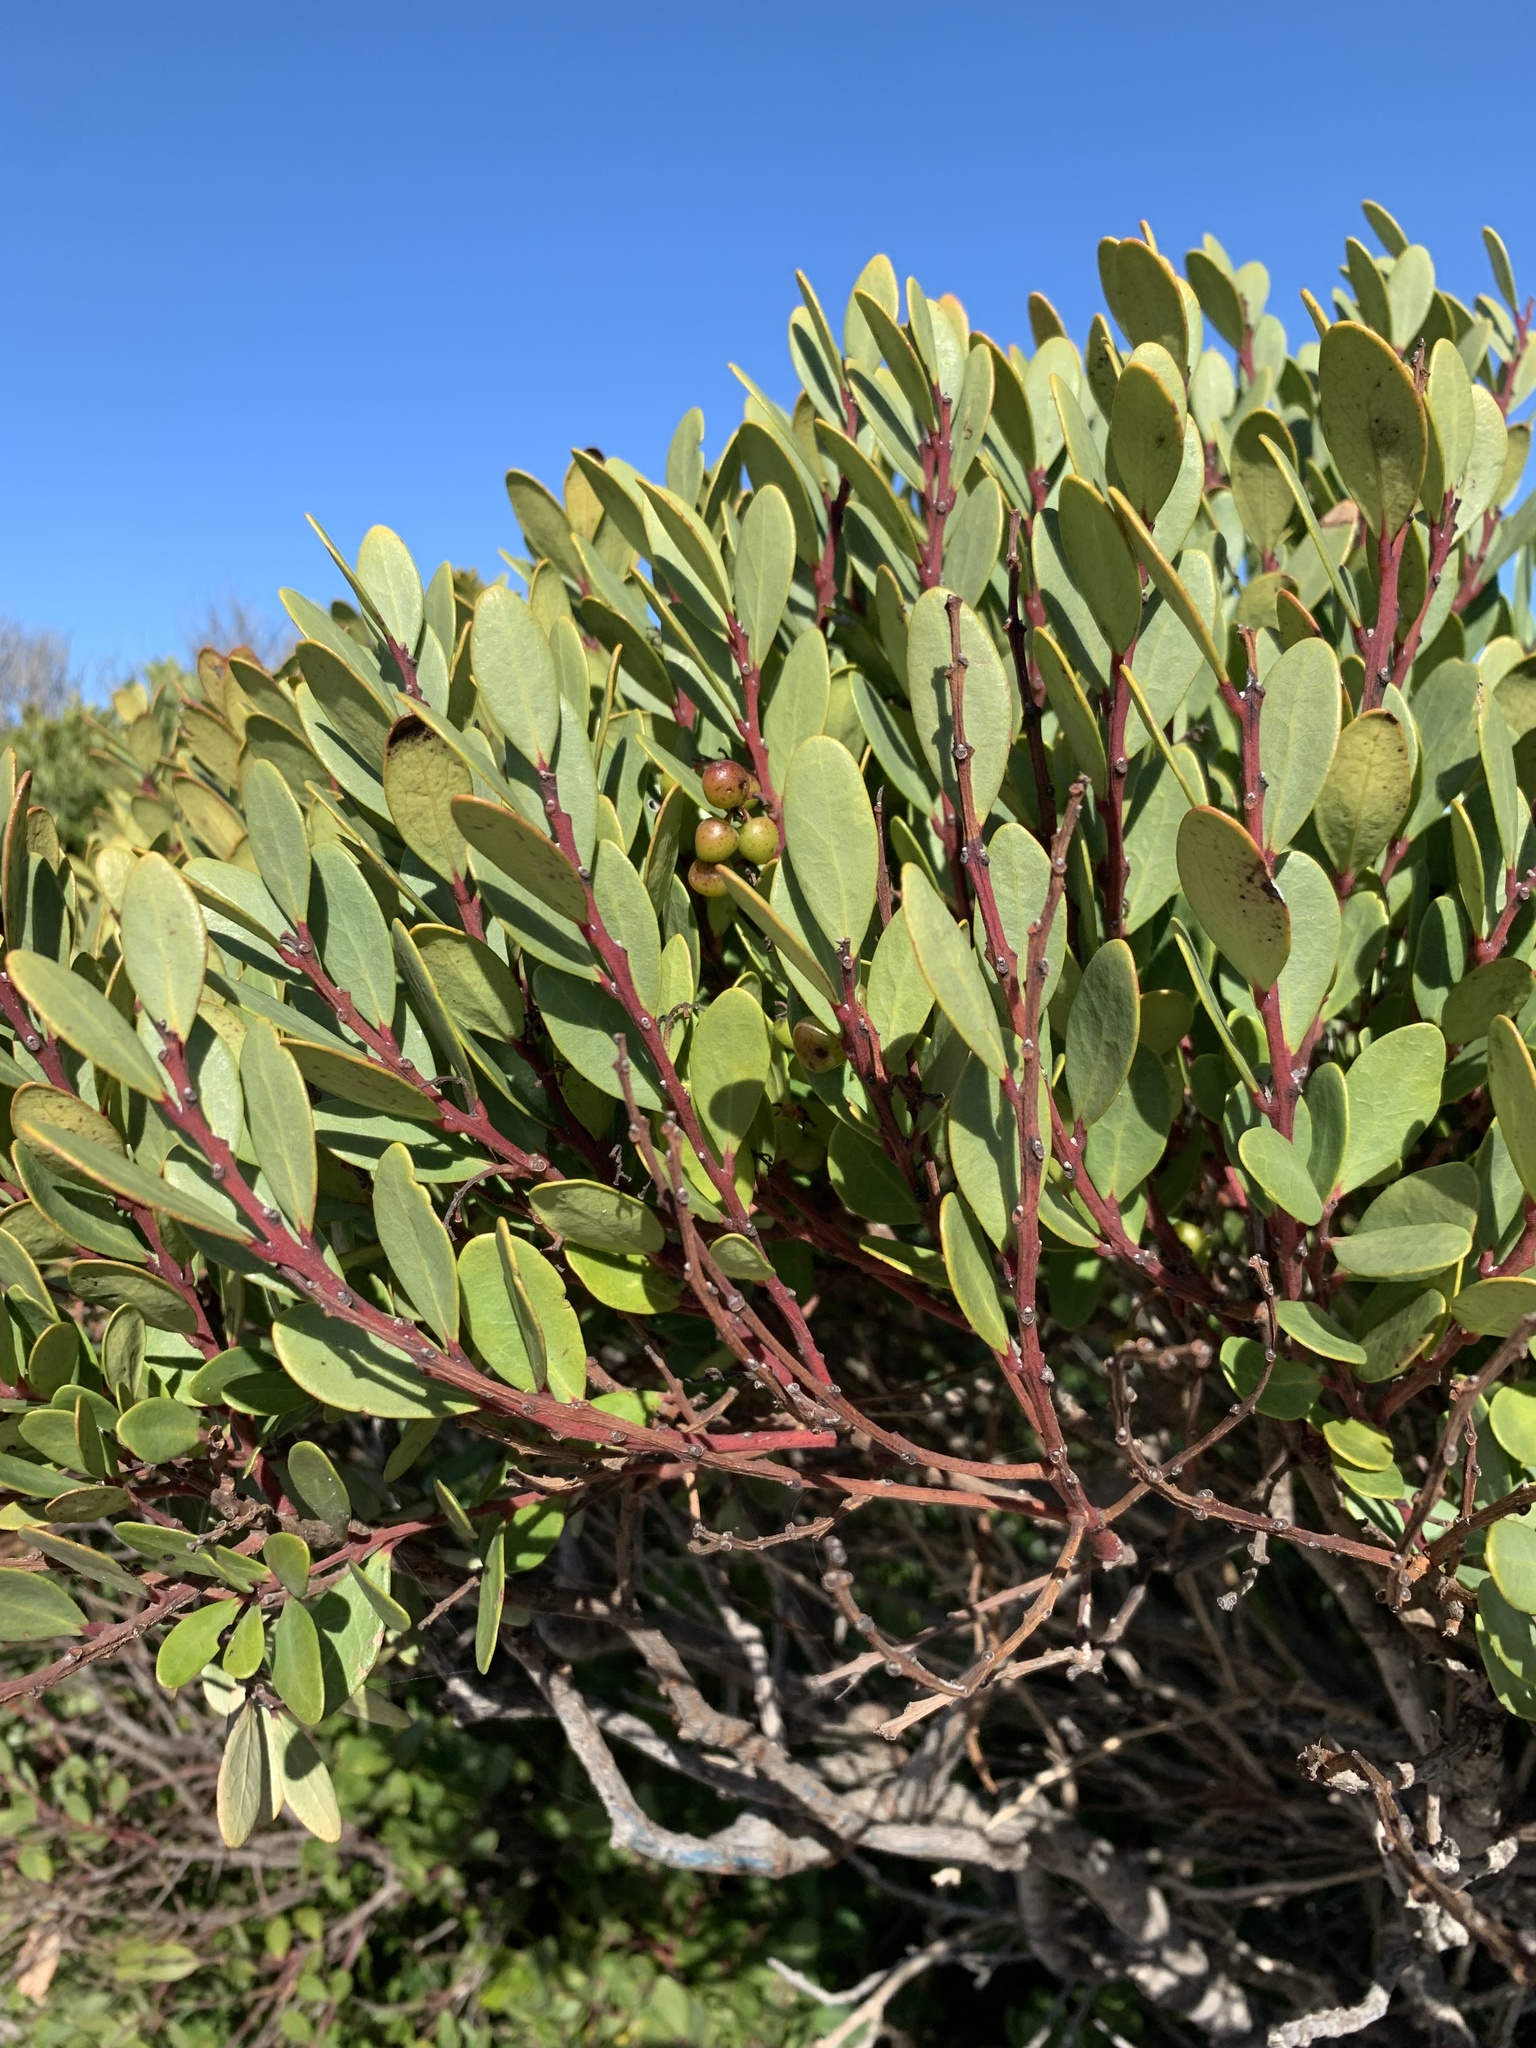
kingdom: Plantae
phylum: Tracheophyta
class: Magnoliopsida
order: Ericales
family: Ebenaceae
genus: Euclea
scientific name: Euclea racemosa
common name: Dune guarri
